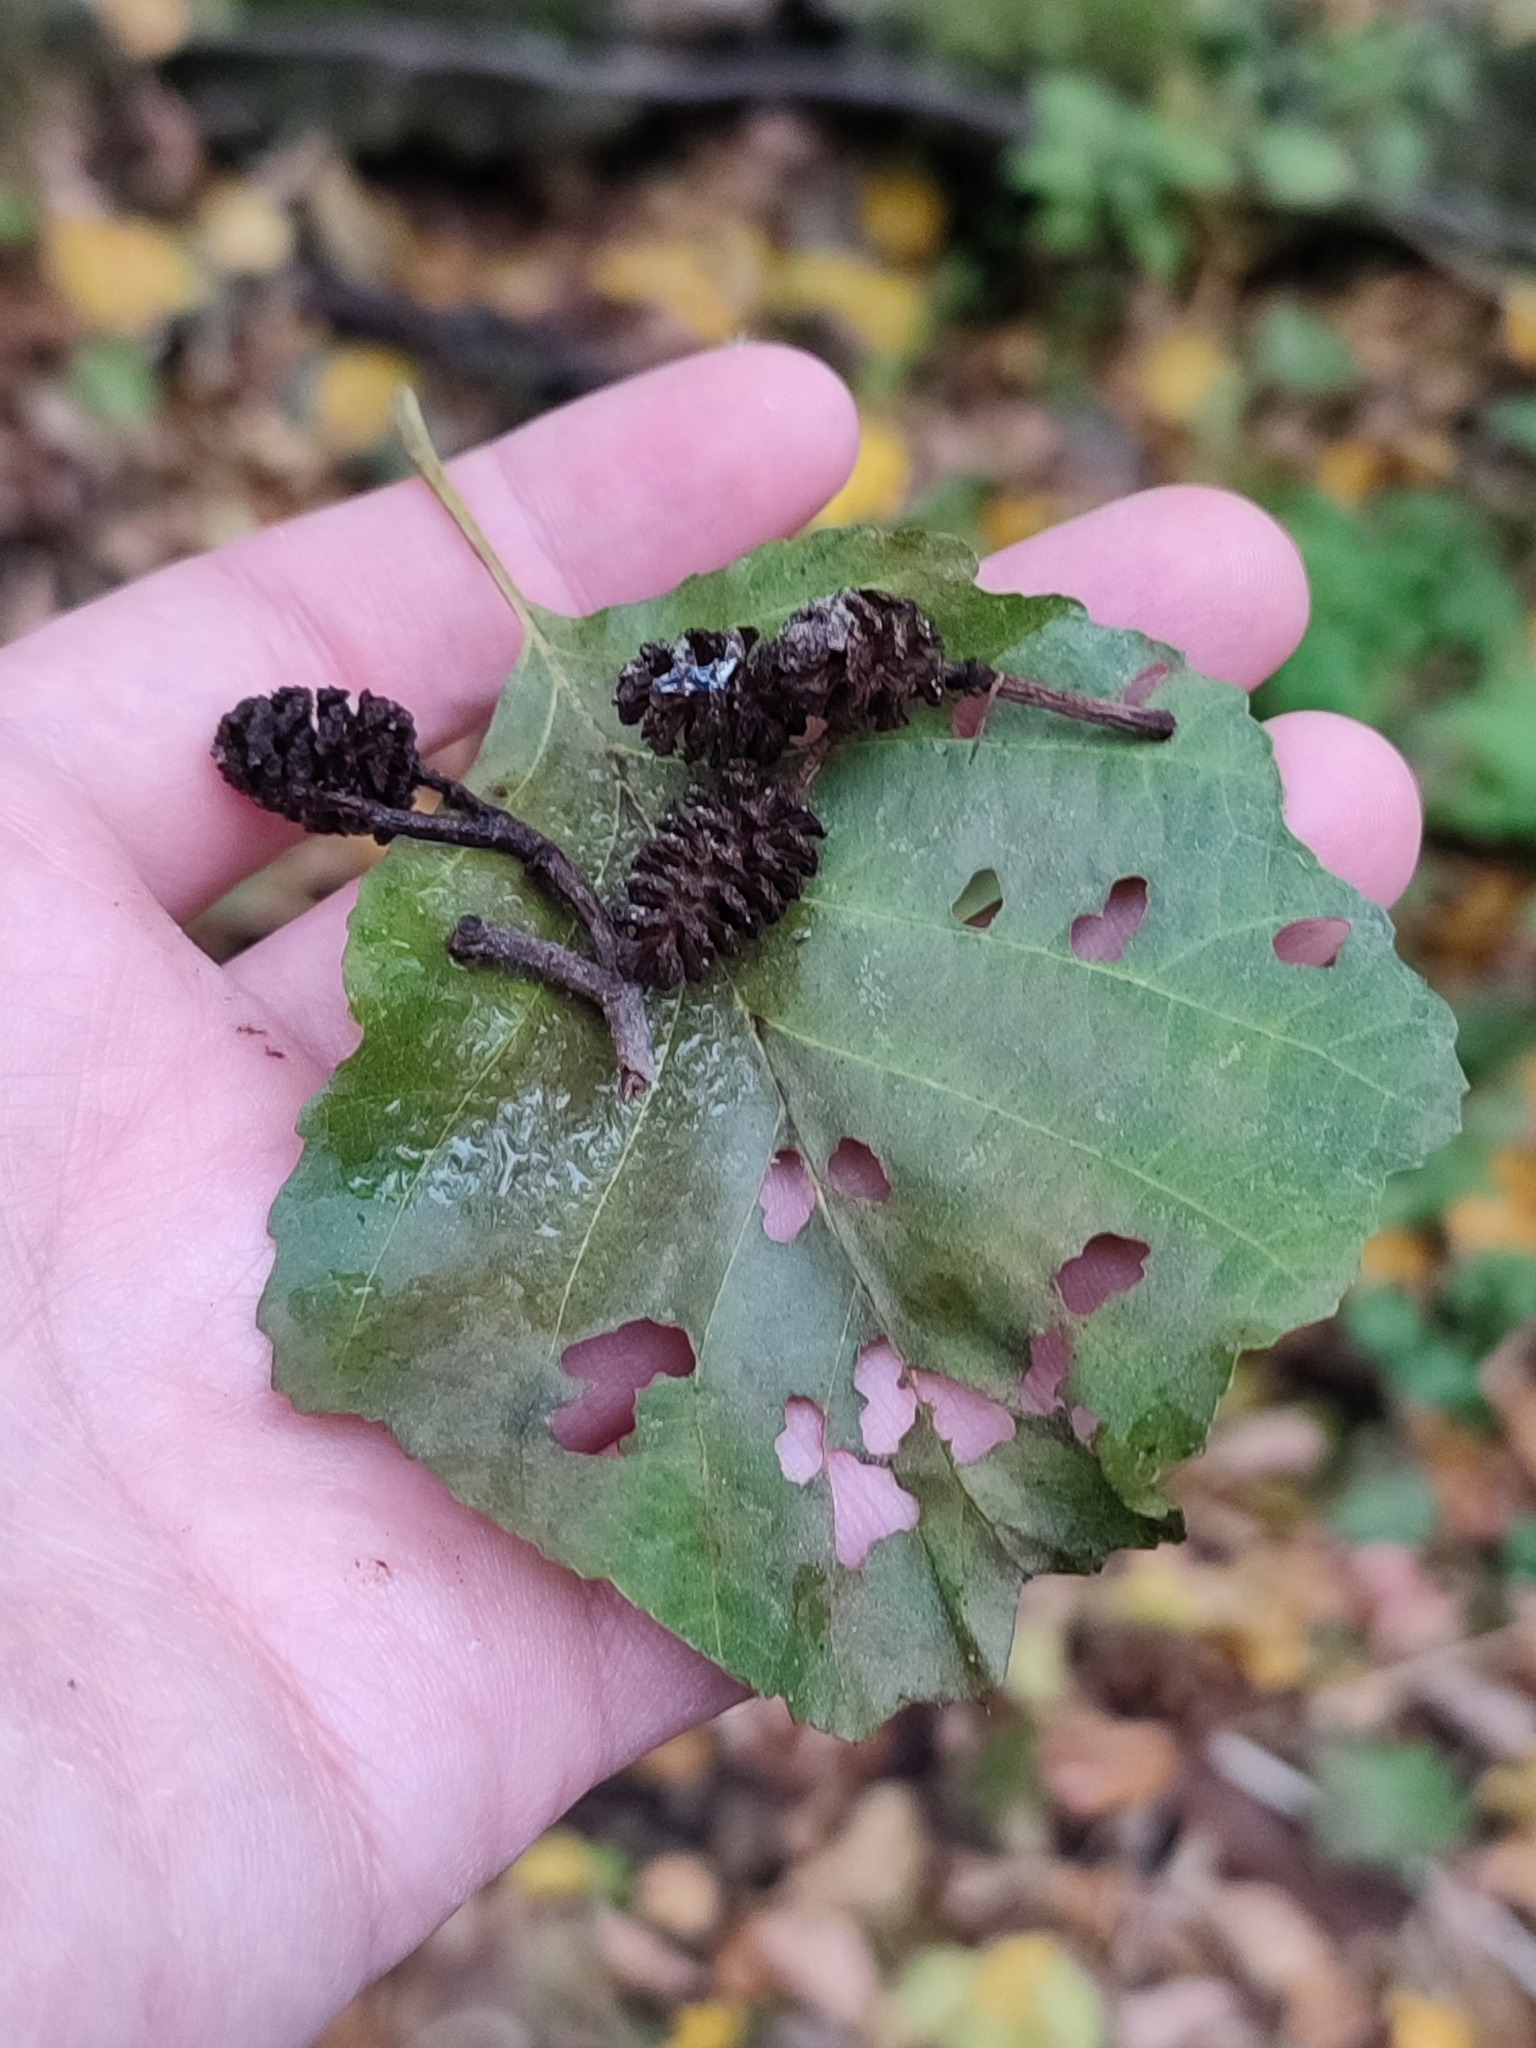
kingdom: Plantae
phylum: Tracheophyta
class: Magnoliopsida
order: Fagales
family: Betulaceae
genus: Alnus
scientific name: Alnus glutinosa
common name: Black alder
